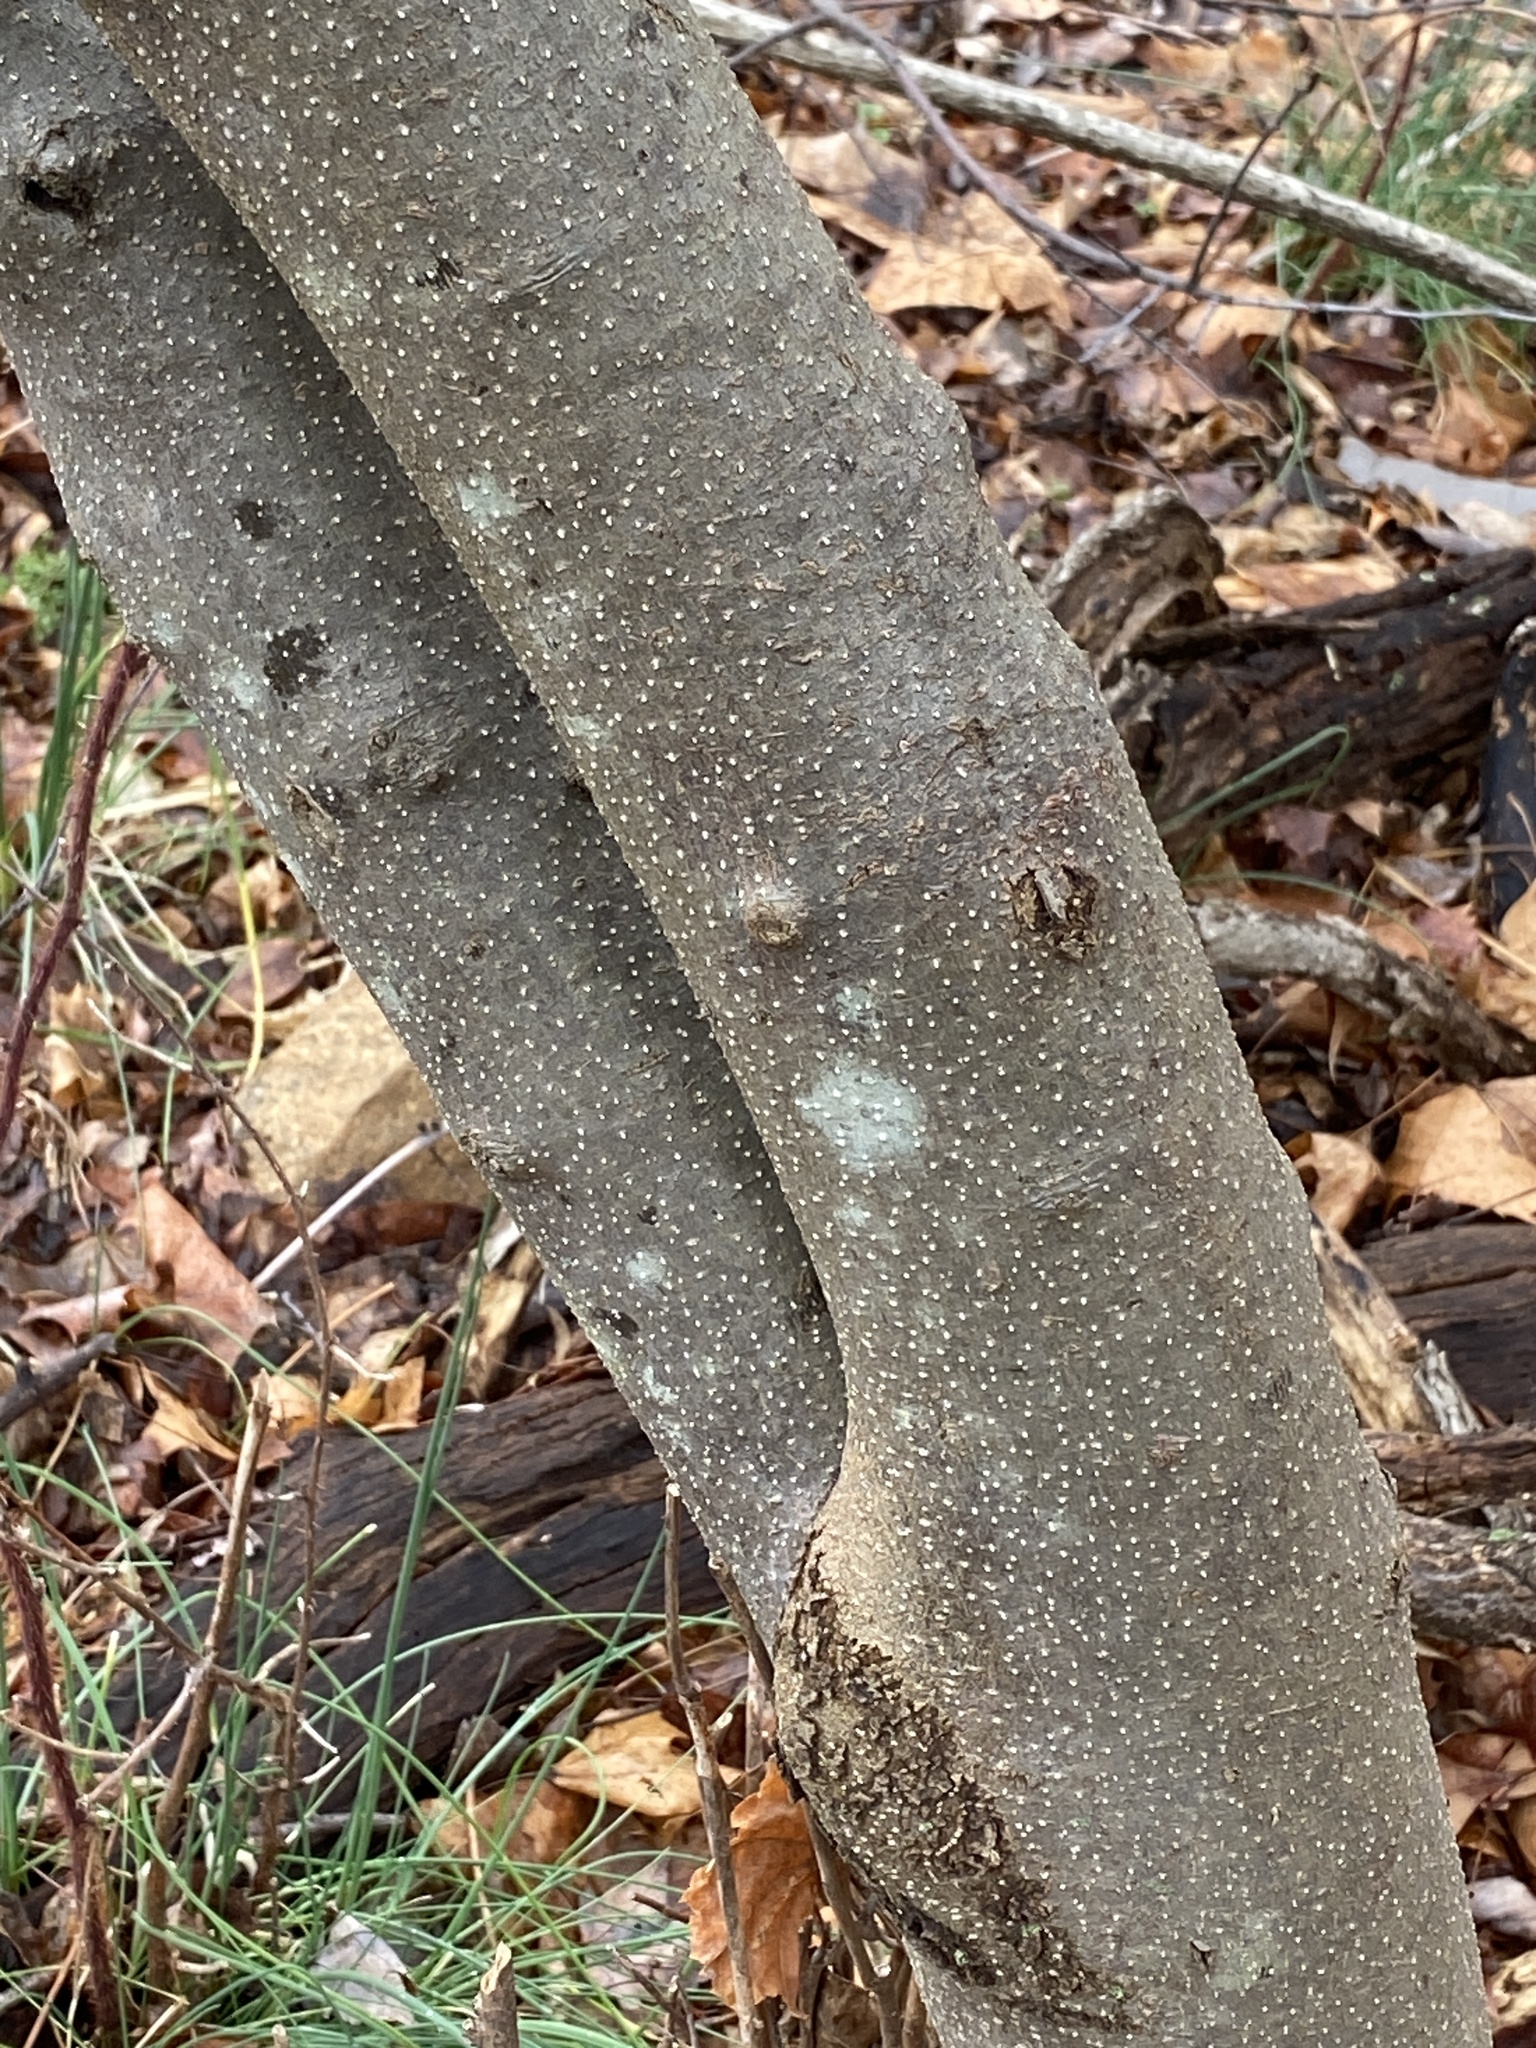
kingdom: Plantae
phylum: Tracheophyta
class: Magnoliopsida
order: Laurales
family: Lauraceae
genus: Lindera
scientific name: Lindera benzoin
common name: Spicebush
